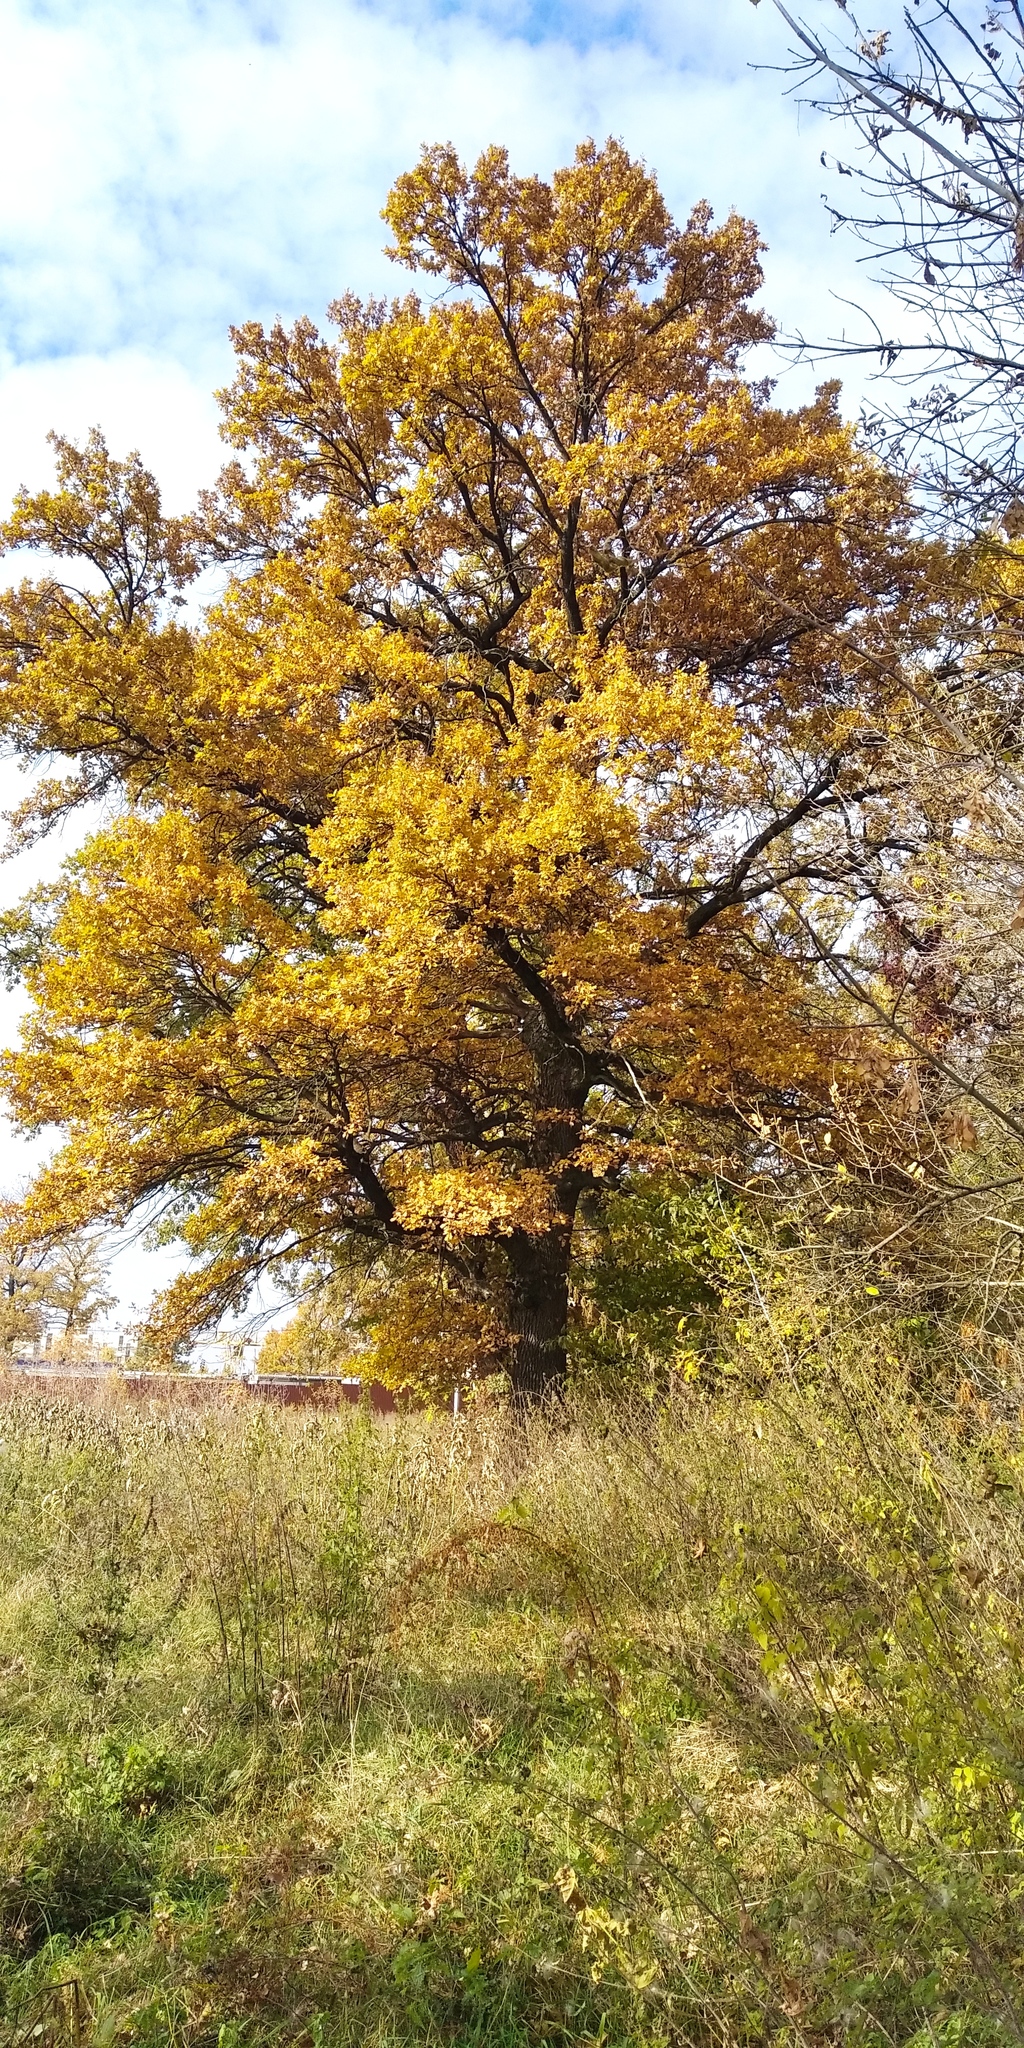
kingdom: Plantae
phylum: Tracheophyta
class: Magnoliopsida
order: Fagales
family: Fagaceae
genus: Quercus
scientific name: Quercus robur
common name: Pedunculate oak
